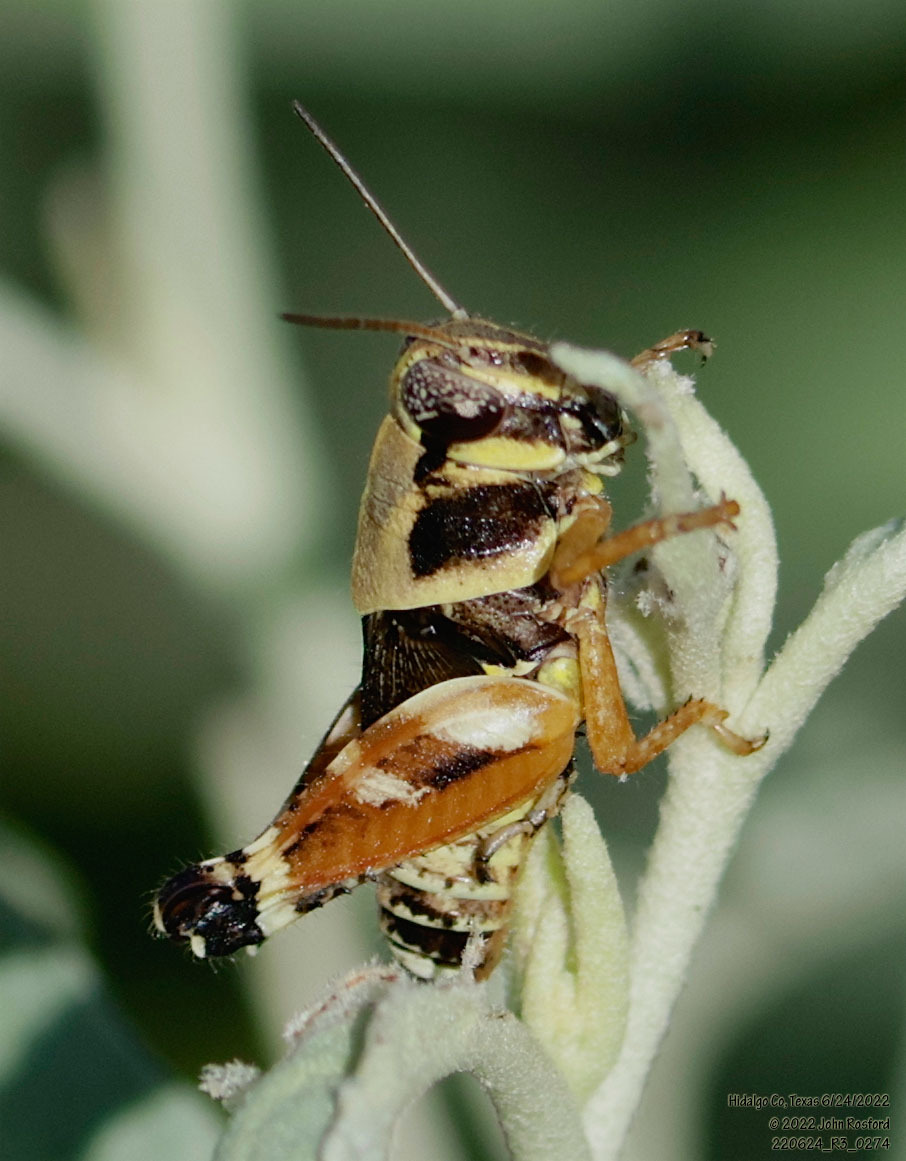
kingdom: Animalia
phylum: Arthropoda
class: Insecta
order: Orthoptera
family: Acrididae
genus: Aidemona
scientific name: Aidemona azteca
